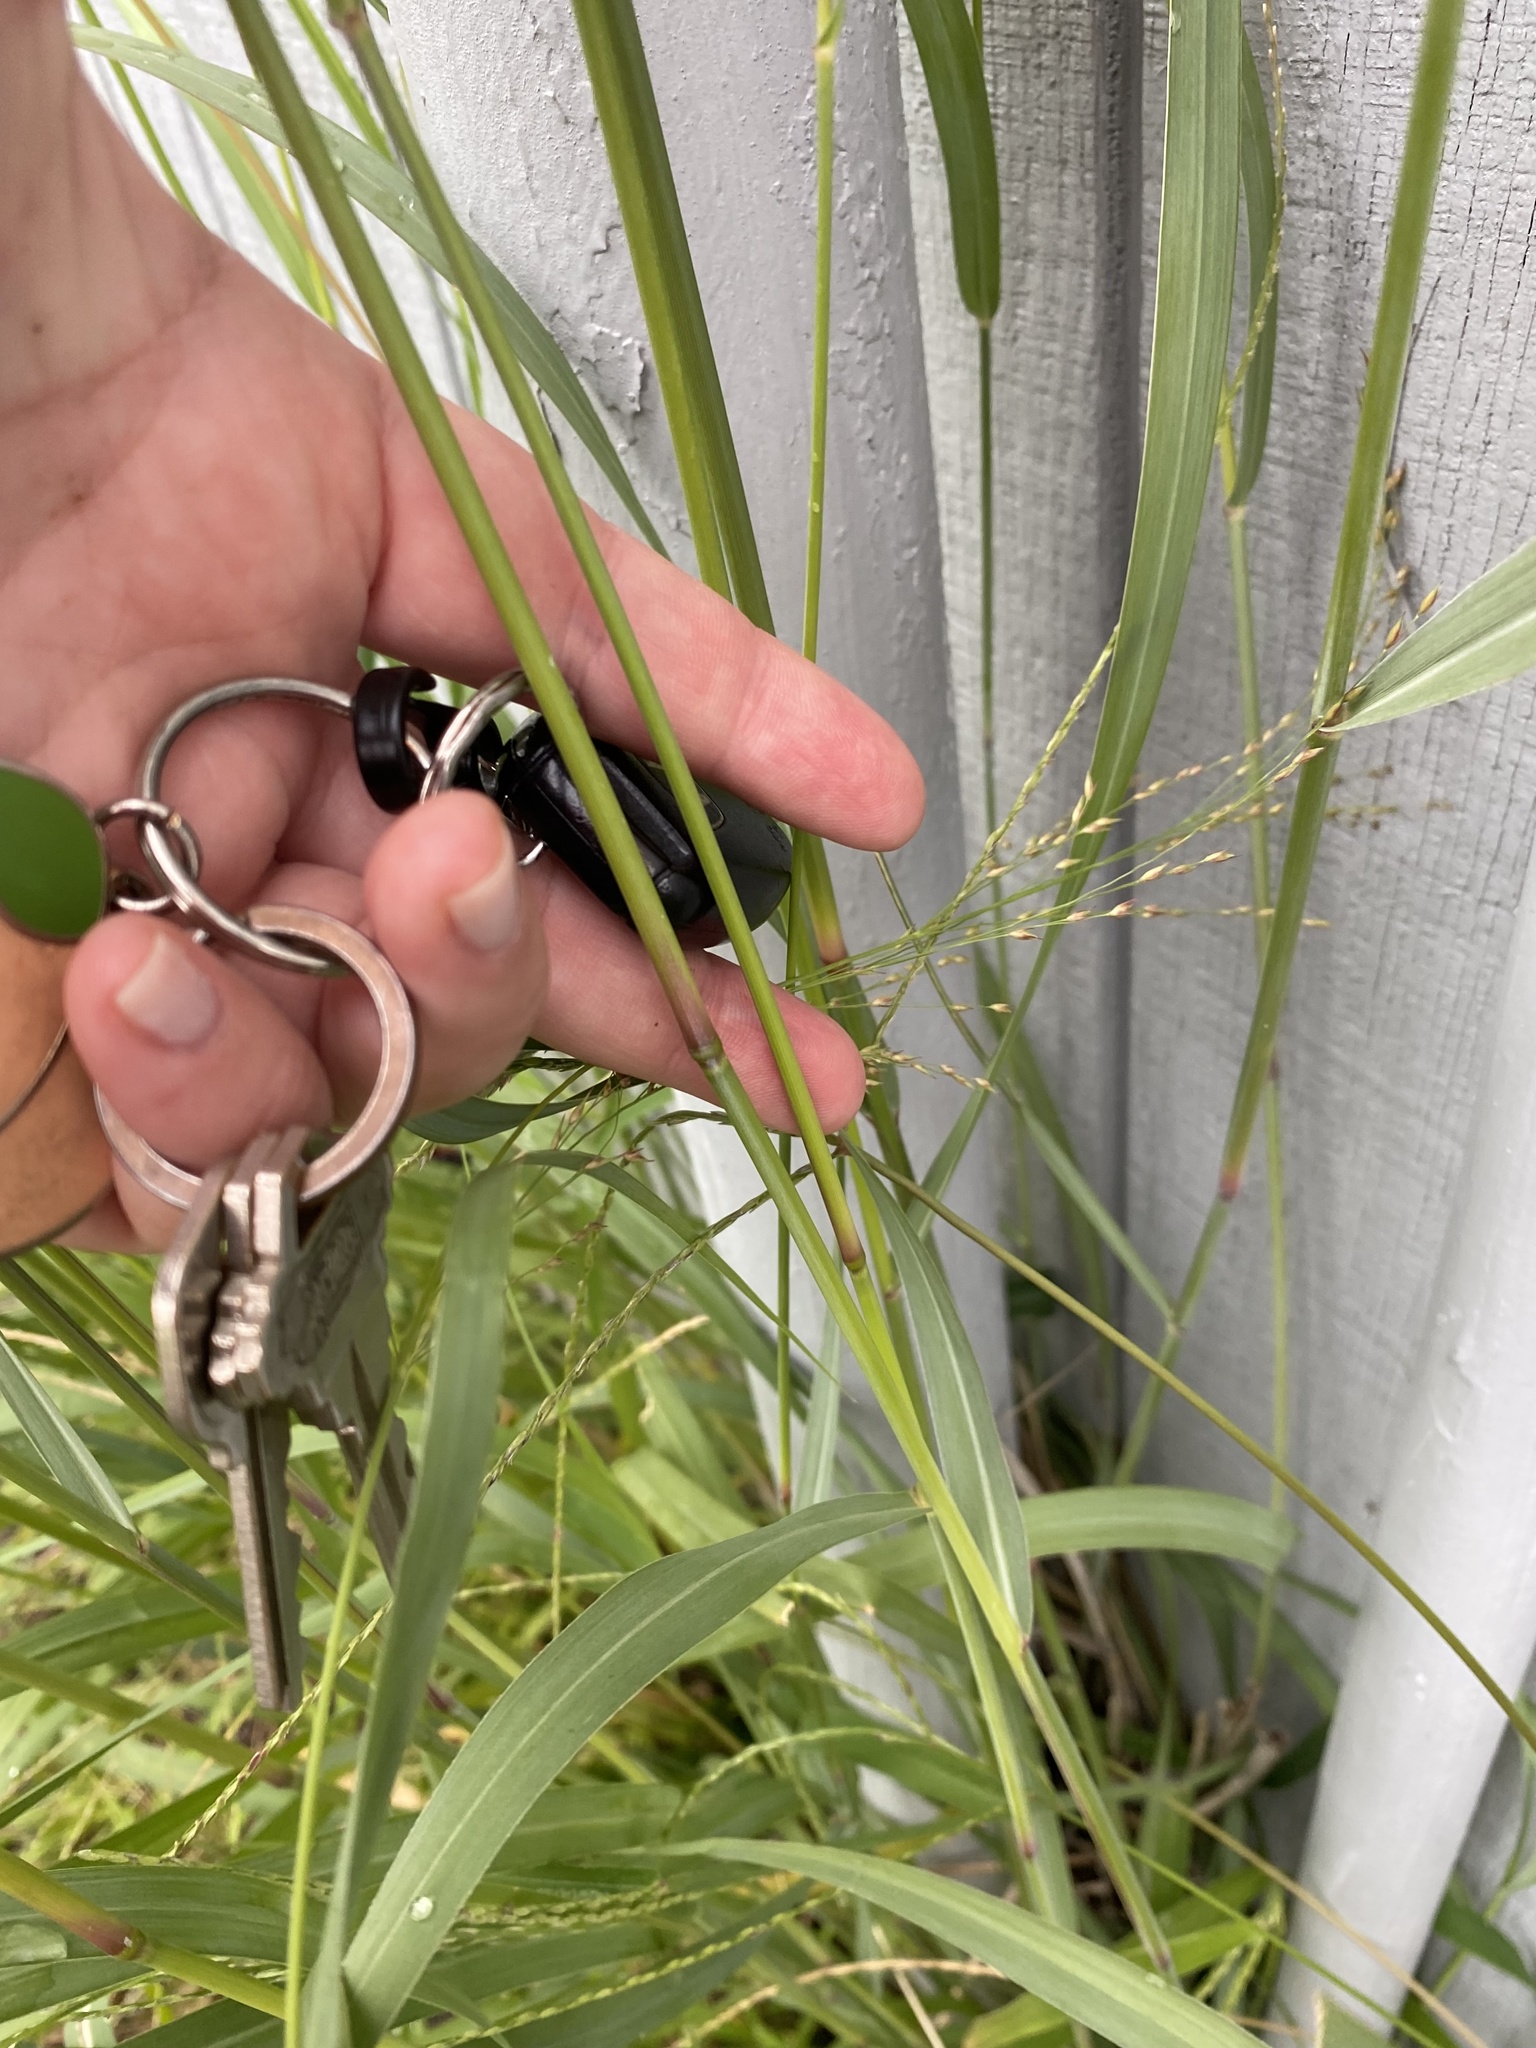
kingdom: Plantae
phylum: Tracheophyta
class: Liliopsida
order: Poales
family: Poaceae
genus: Panicum
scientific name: Panicum virgatum
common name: Switchgrass
